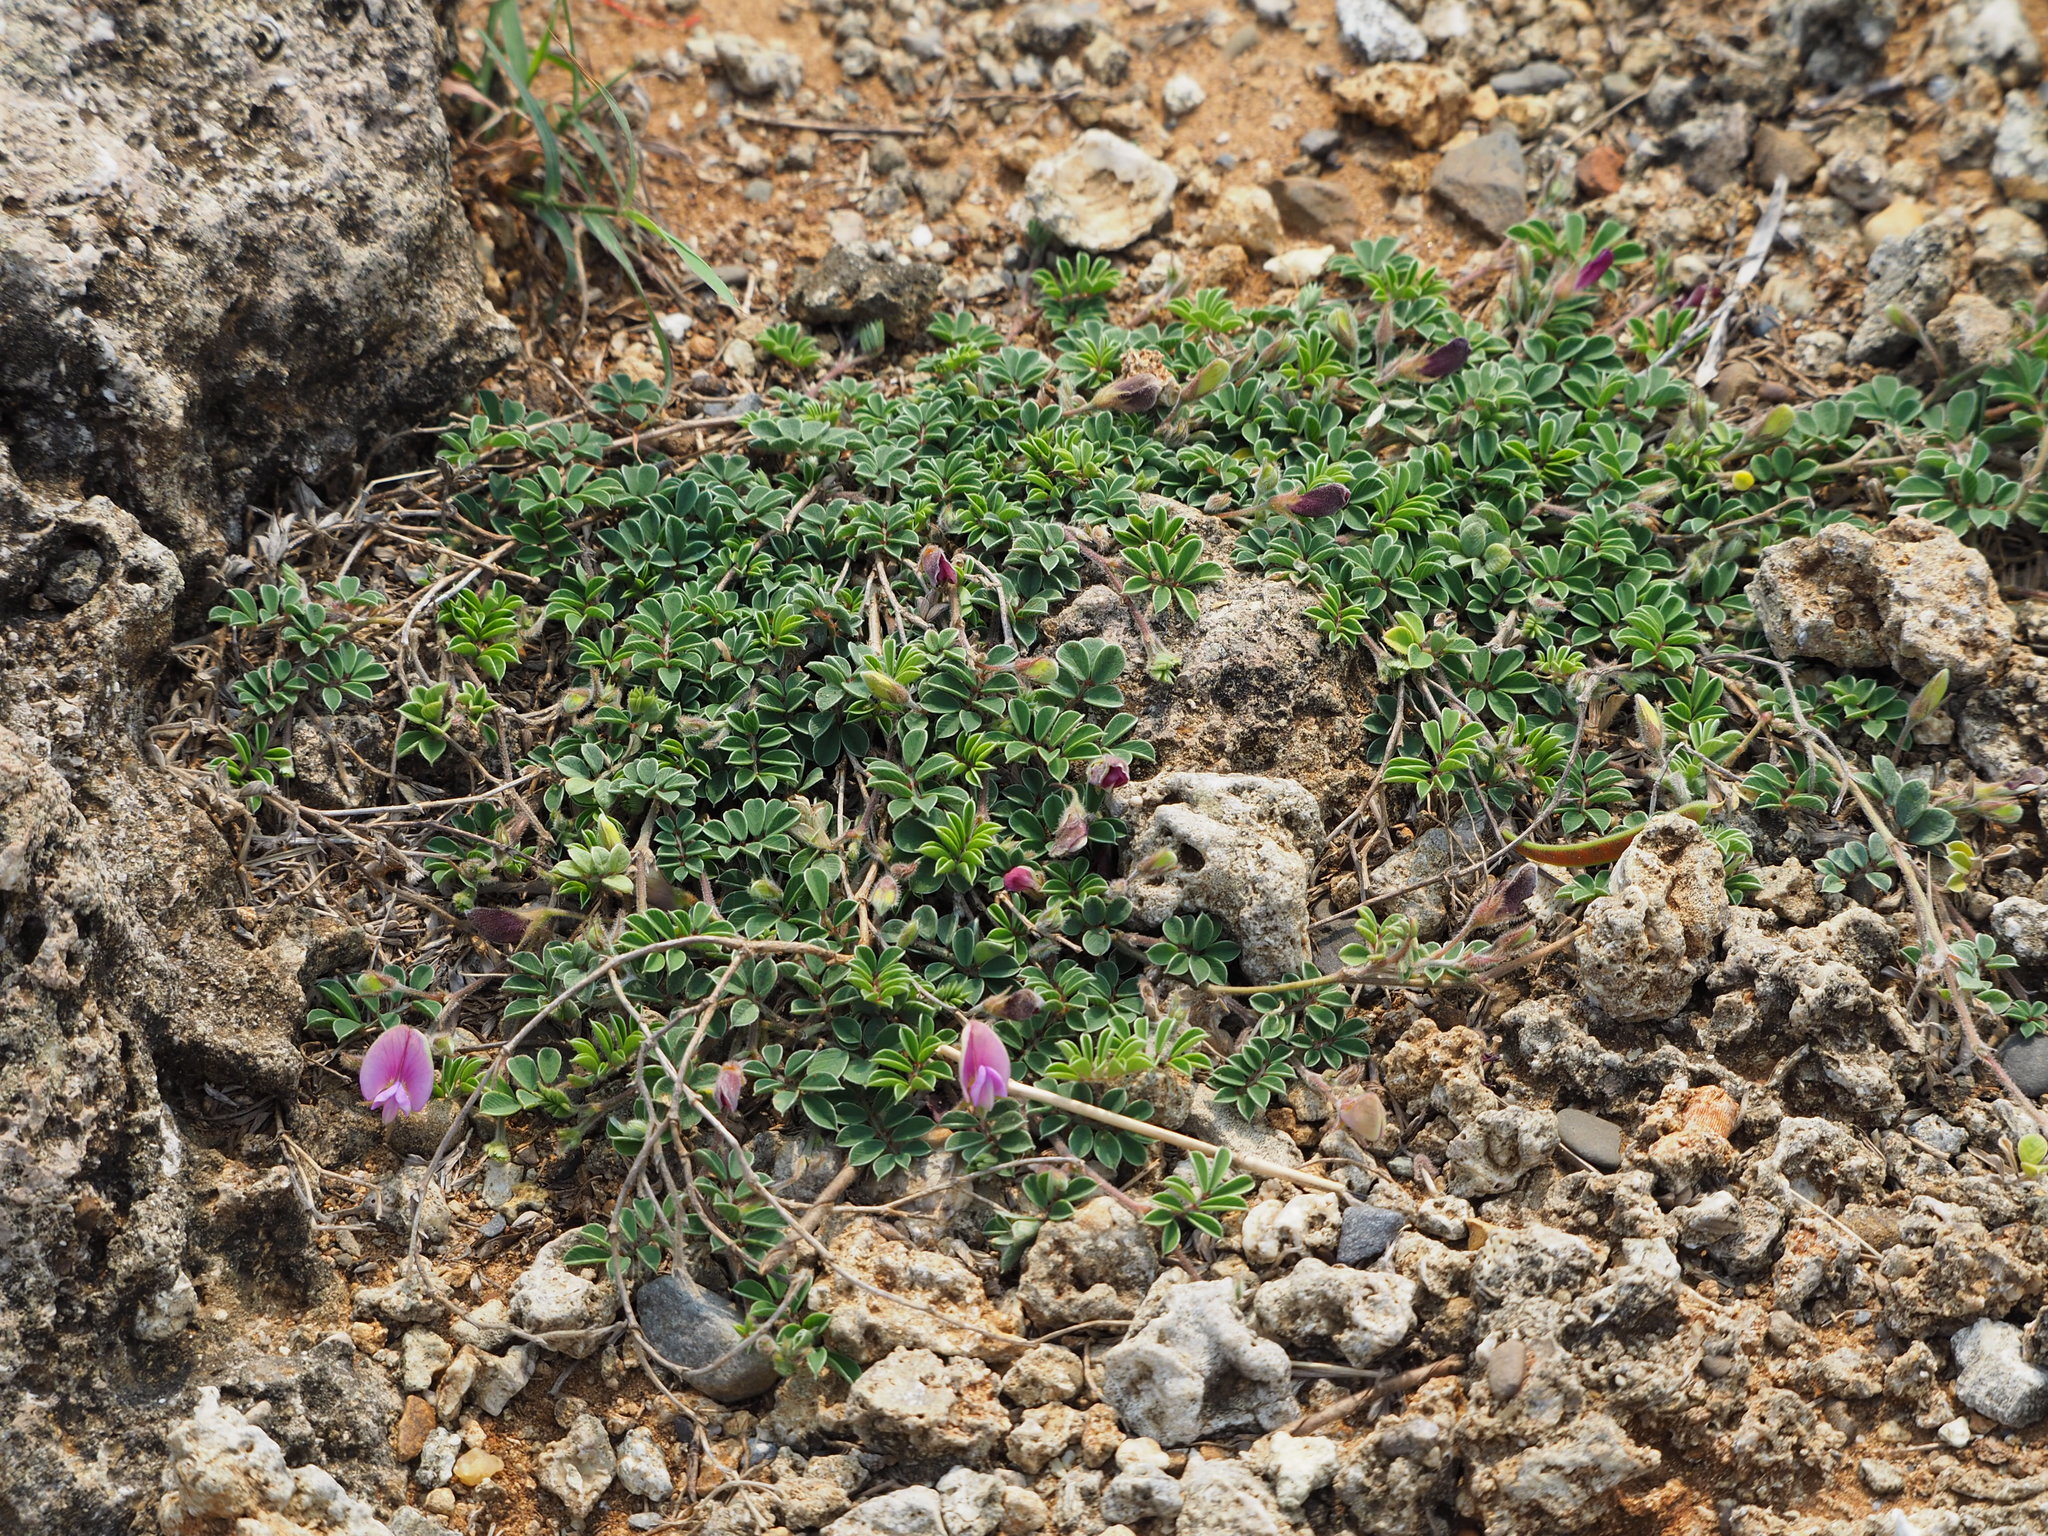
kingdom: Plantae
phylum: Tracheophyta
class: Magnoliopsida
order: Fabales
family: Fabaceae
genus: Tephrosia
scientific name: Tephrosia obovata
